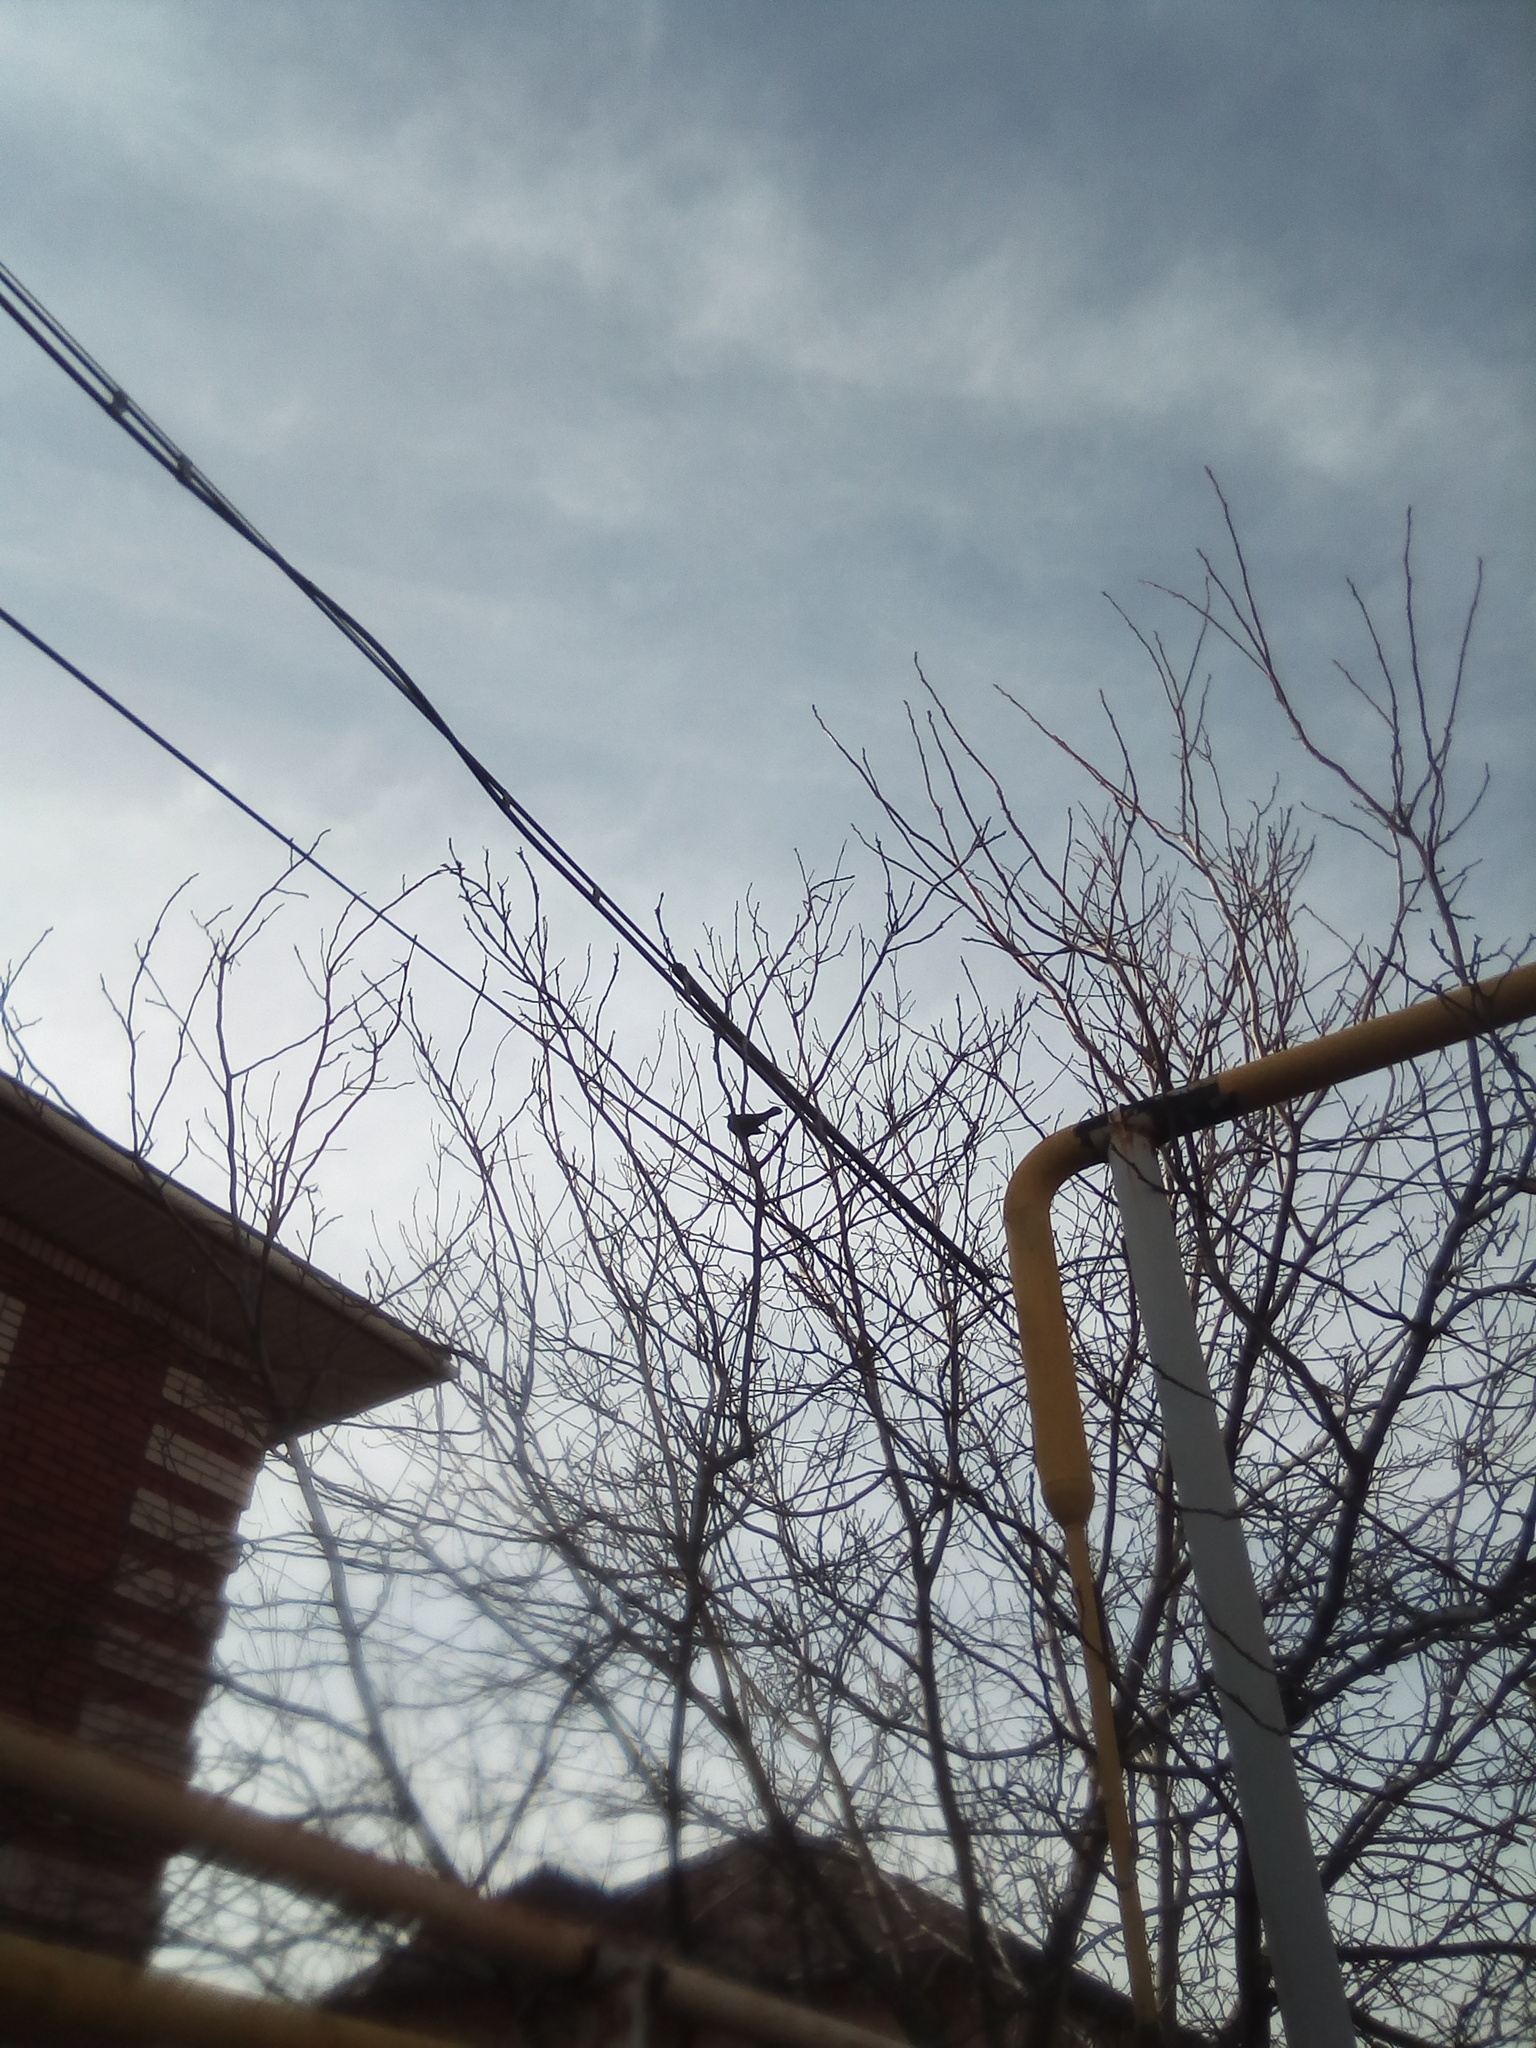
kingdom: Animalia
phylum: Chordata
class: Aves
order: Passeriformes
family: Turdidae
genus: Turdus
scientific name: Turdus merula
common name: Common blackbird
